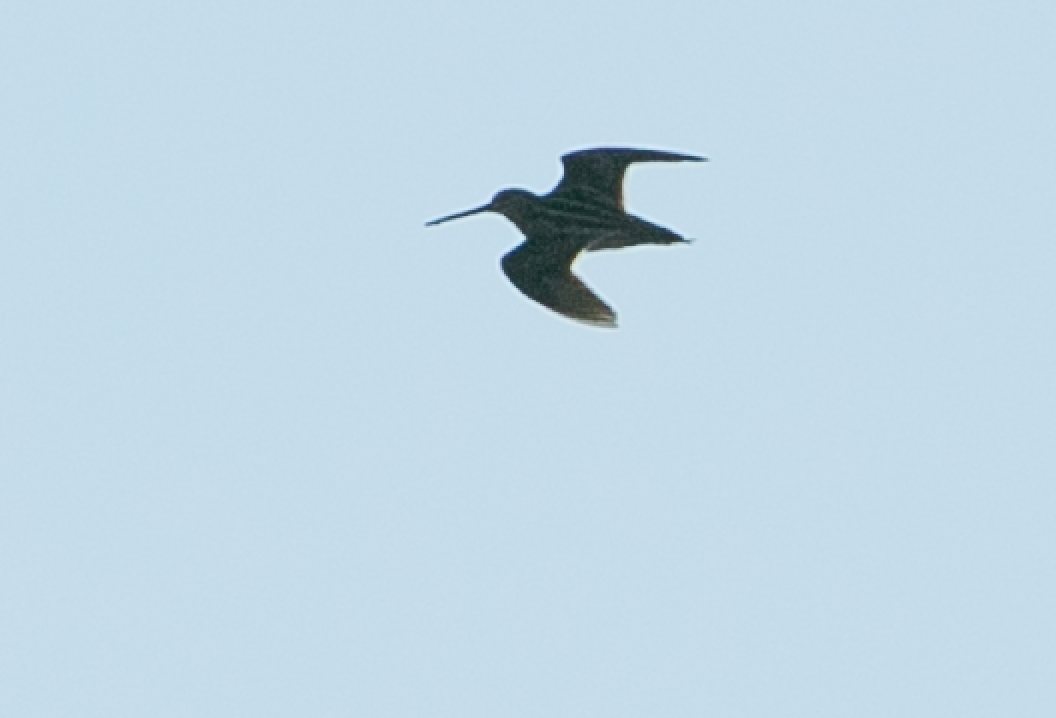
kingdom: Animalia
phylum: Chordata
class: Aves
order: Charadriiformes
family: Scolopacidae
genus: Gallinago
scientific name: Gallinago gallinago
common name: Common snipe
